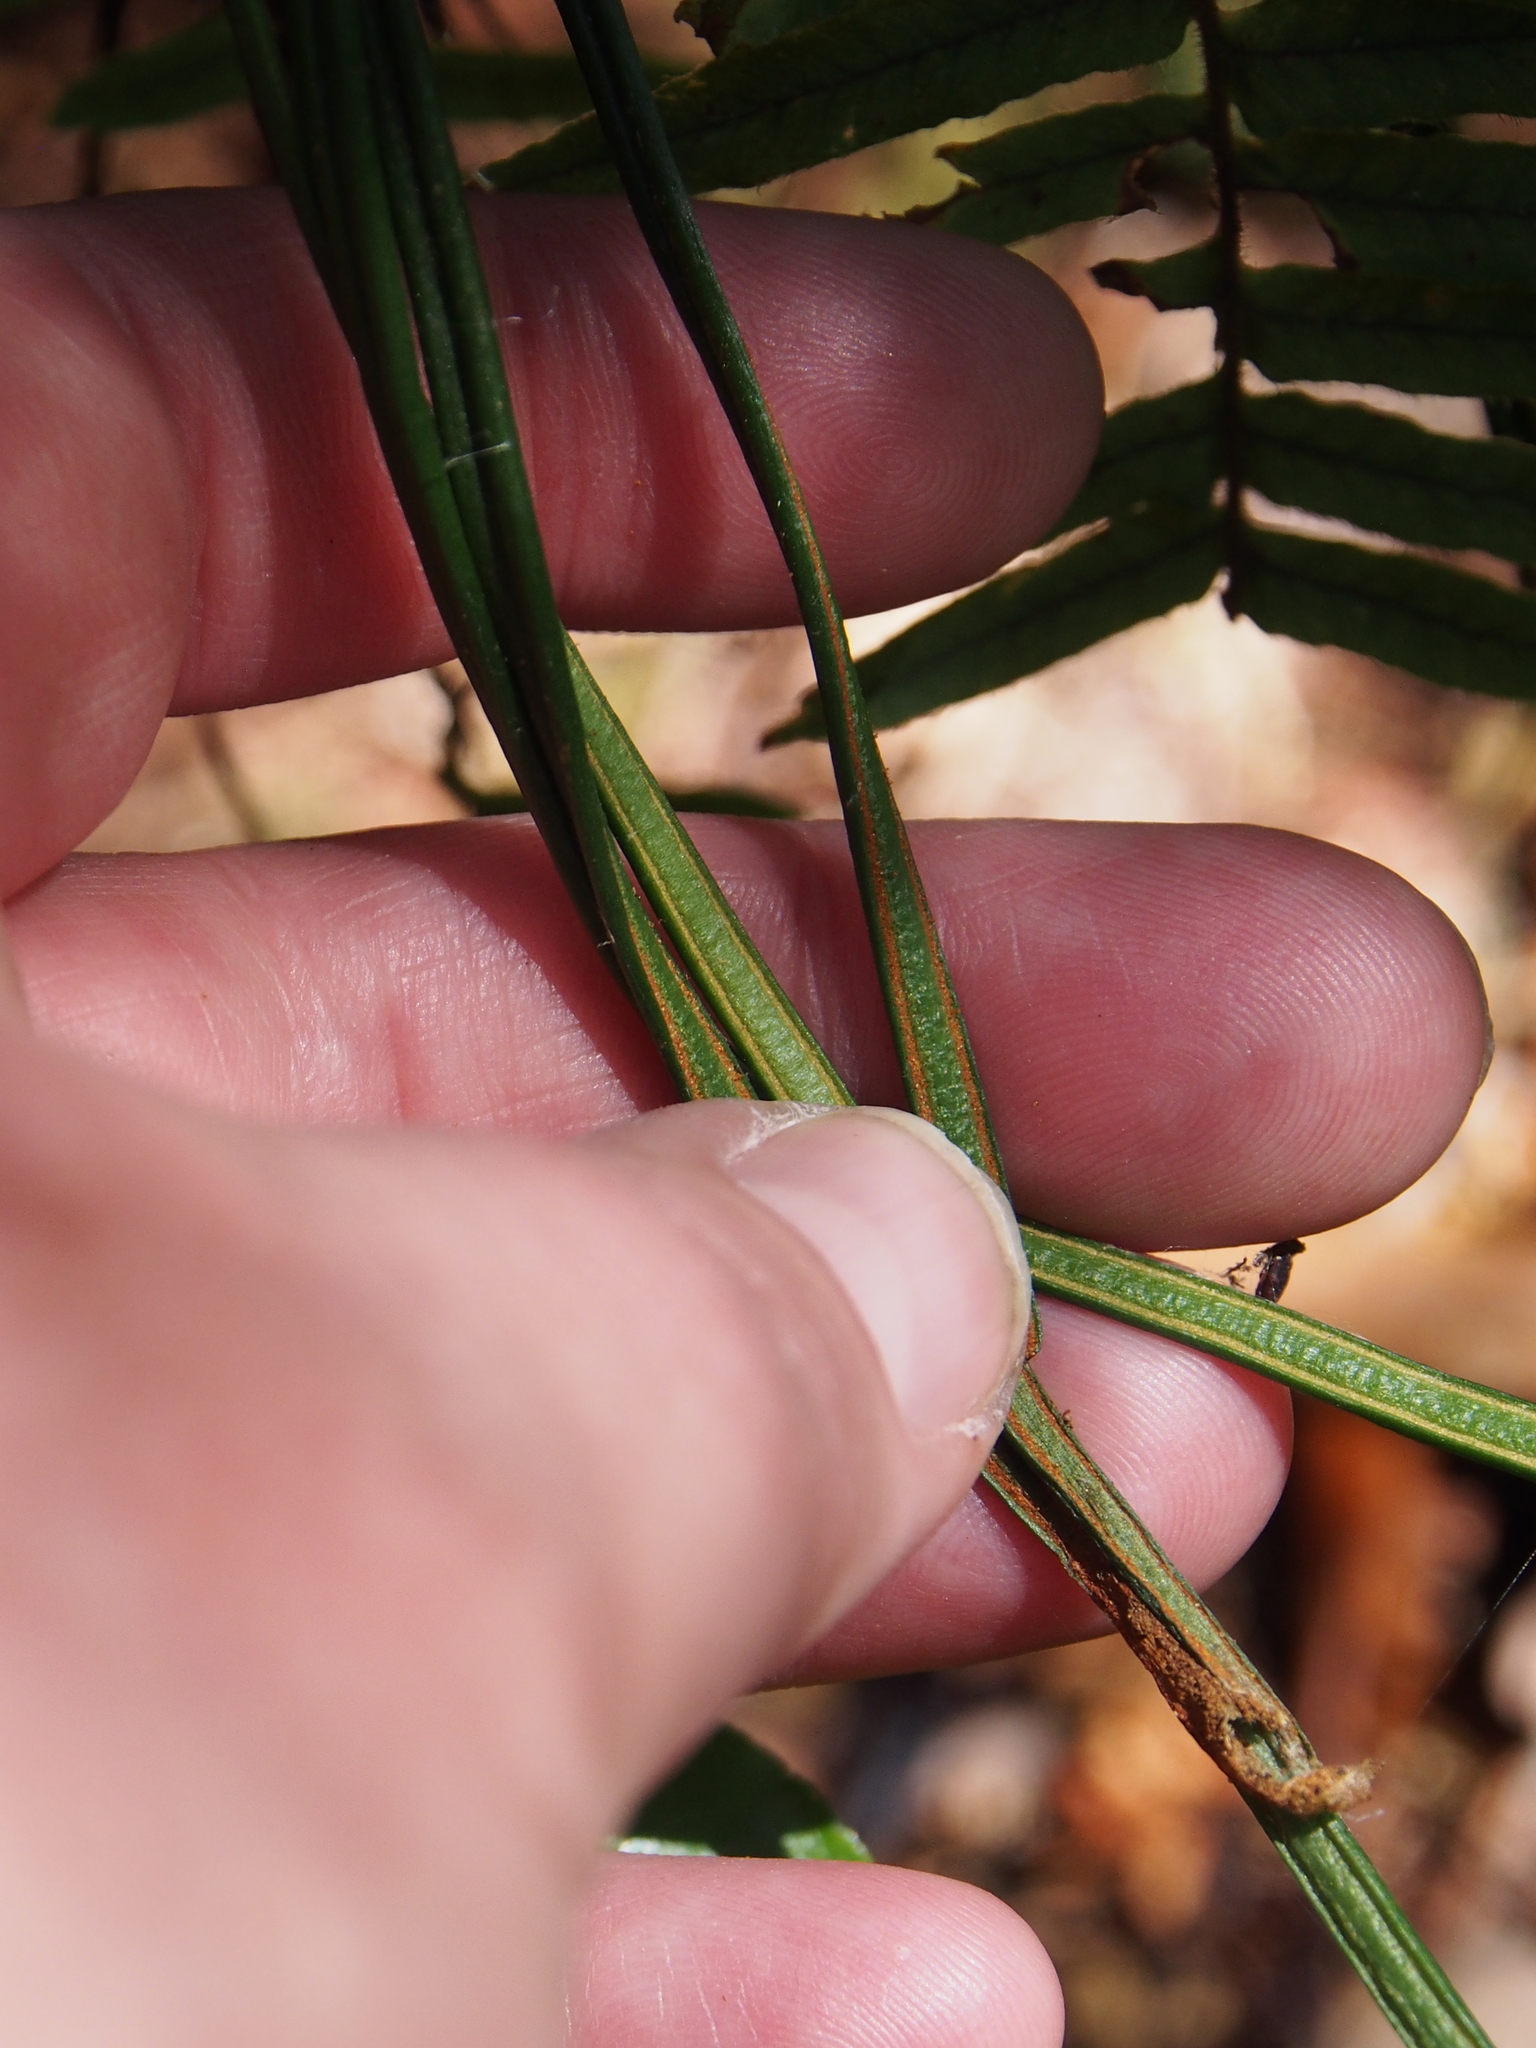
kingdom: Plantae
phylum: Tracheophyta
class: Polypodiopsida
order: Polypodiales
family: Pteridaceae
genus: Vittaria
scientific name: Vittaria graminifolia
